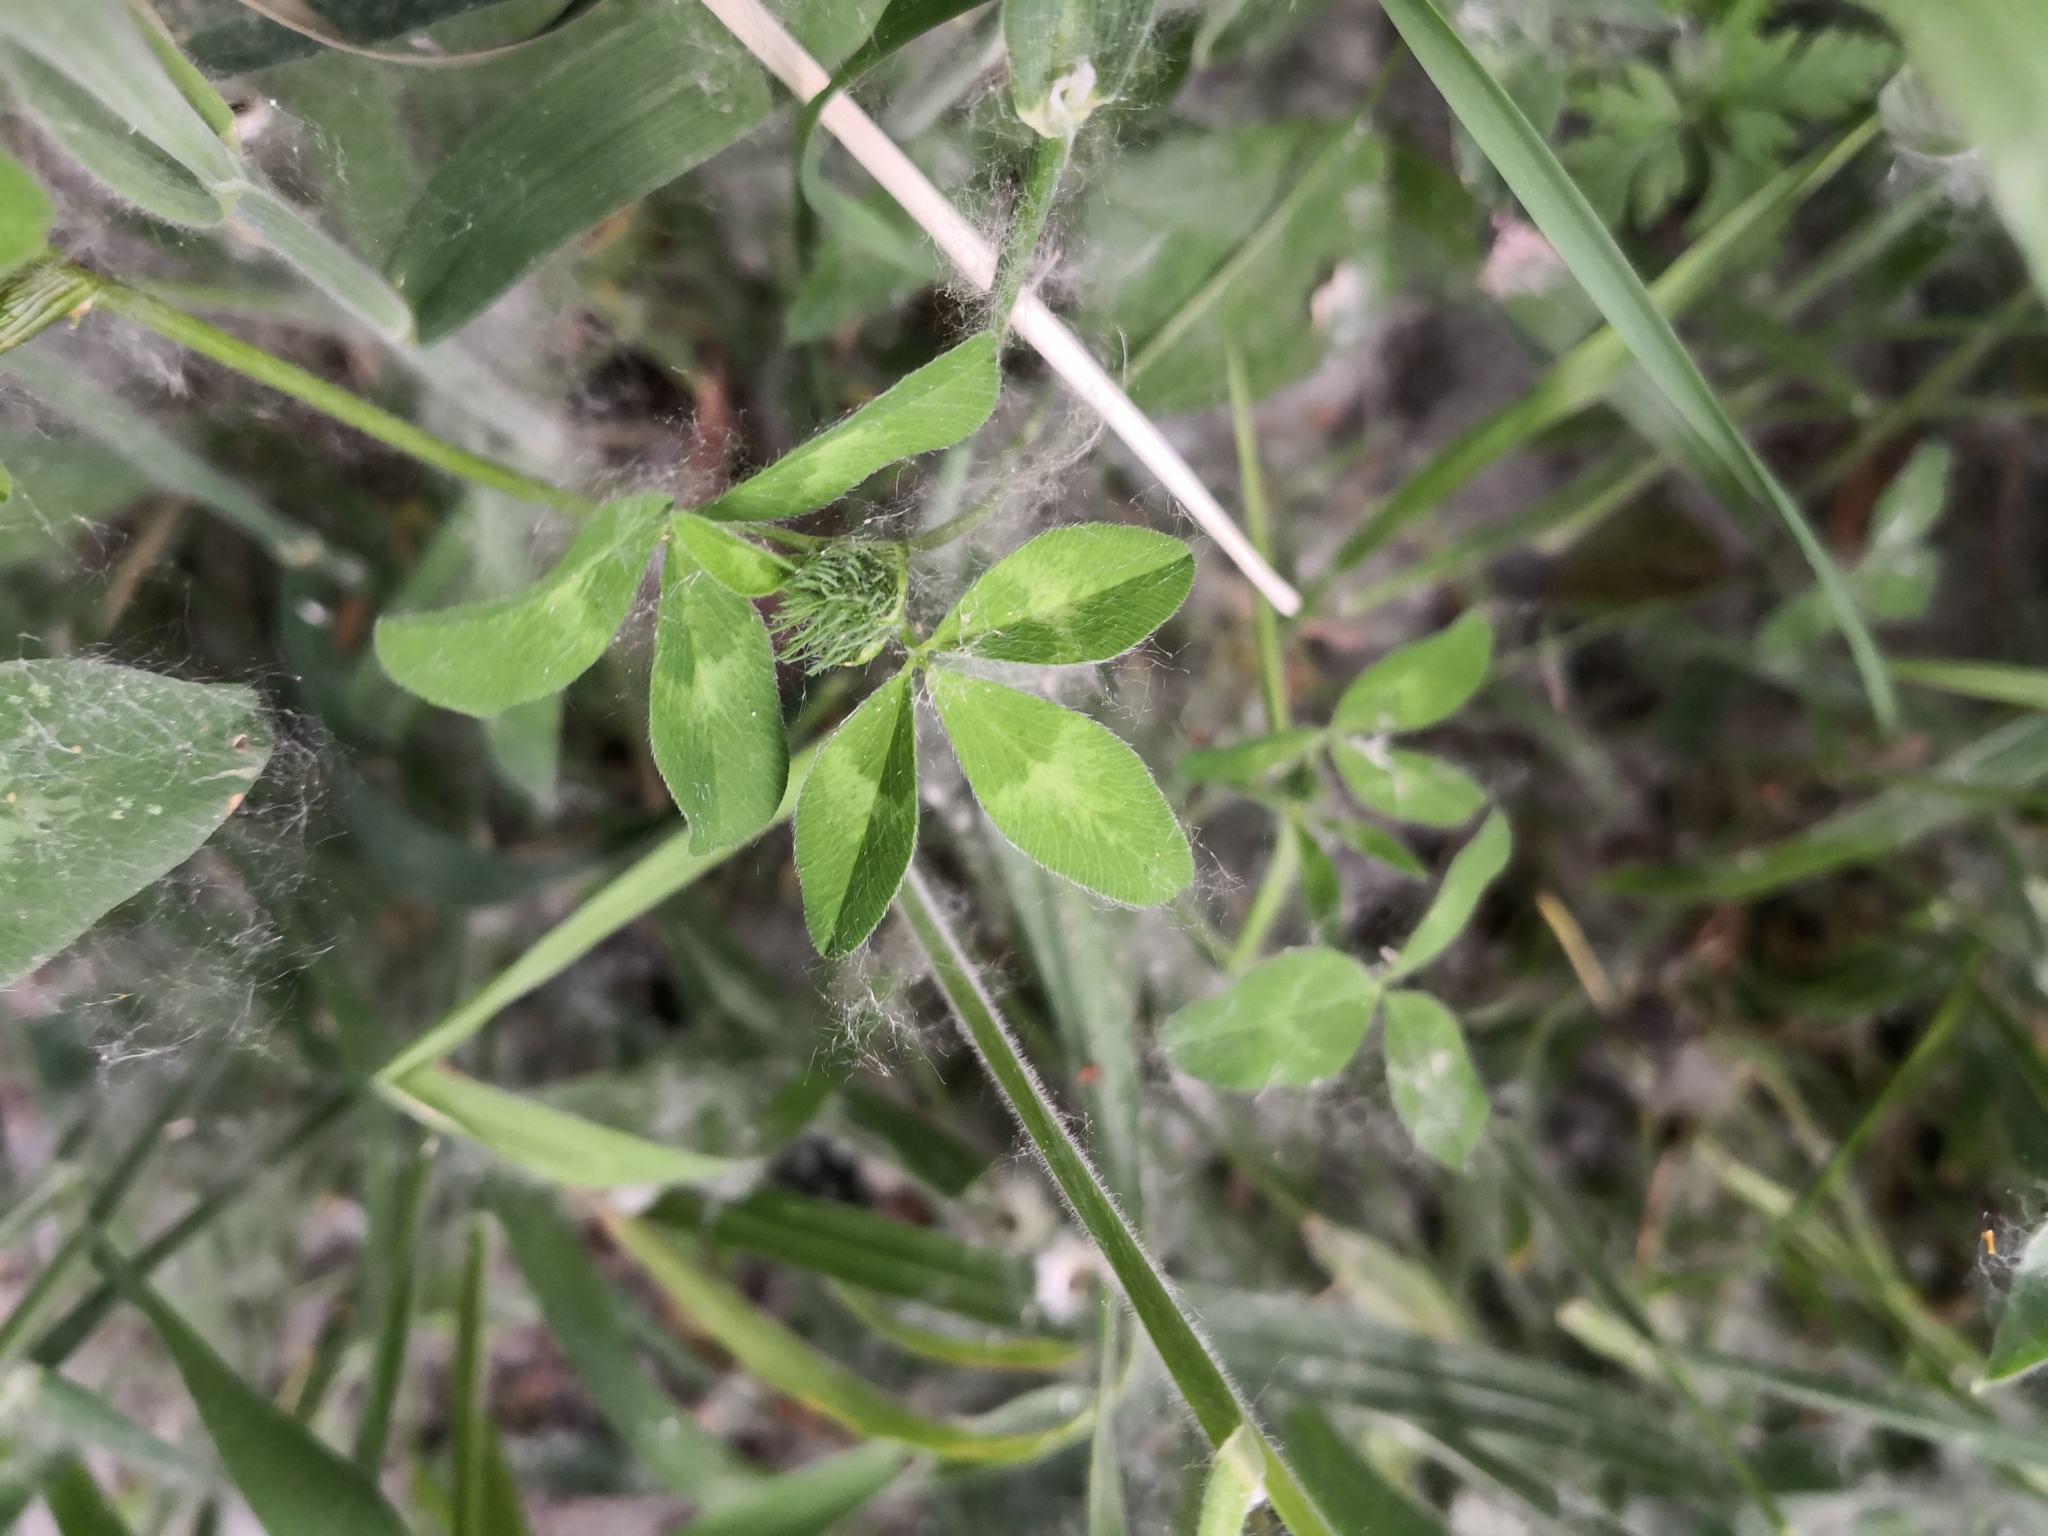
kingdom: Plantae
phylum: Tracheophyta
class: Magnoliopsida
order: Fabales
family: Fabaceae
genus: Trifolium
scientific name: Trifolium pratense
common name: Red clover
